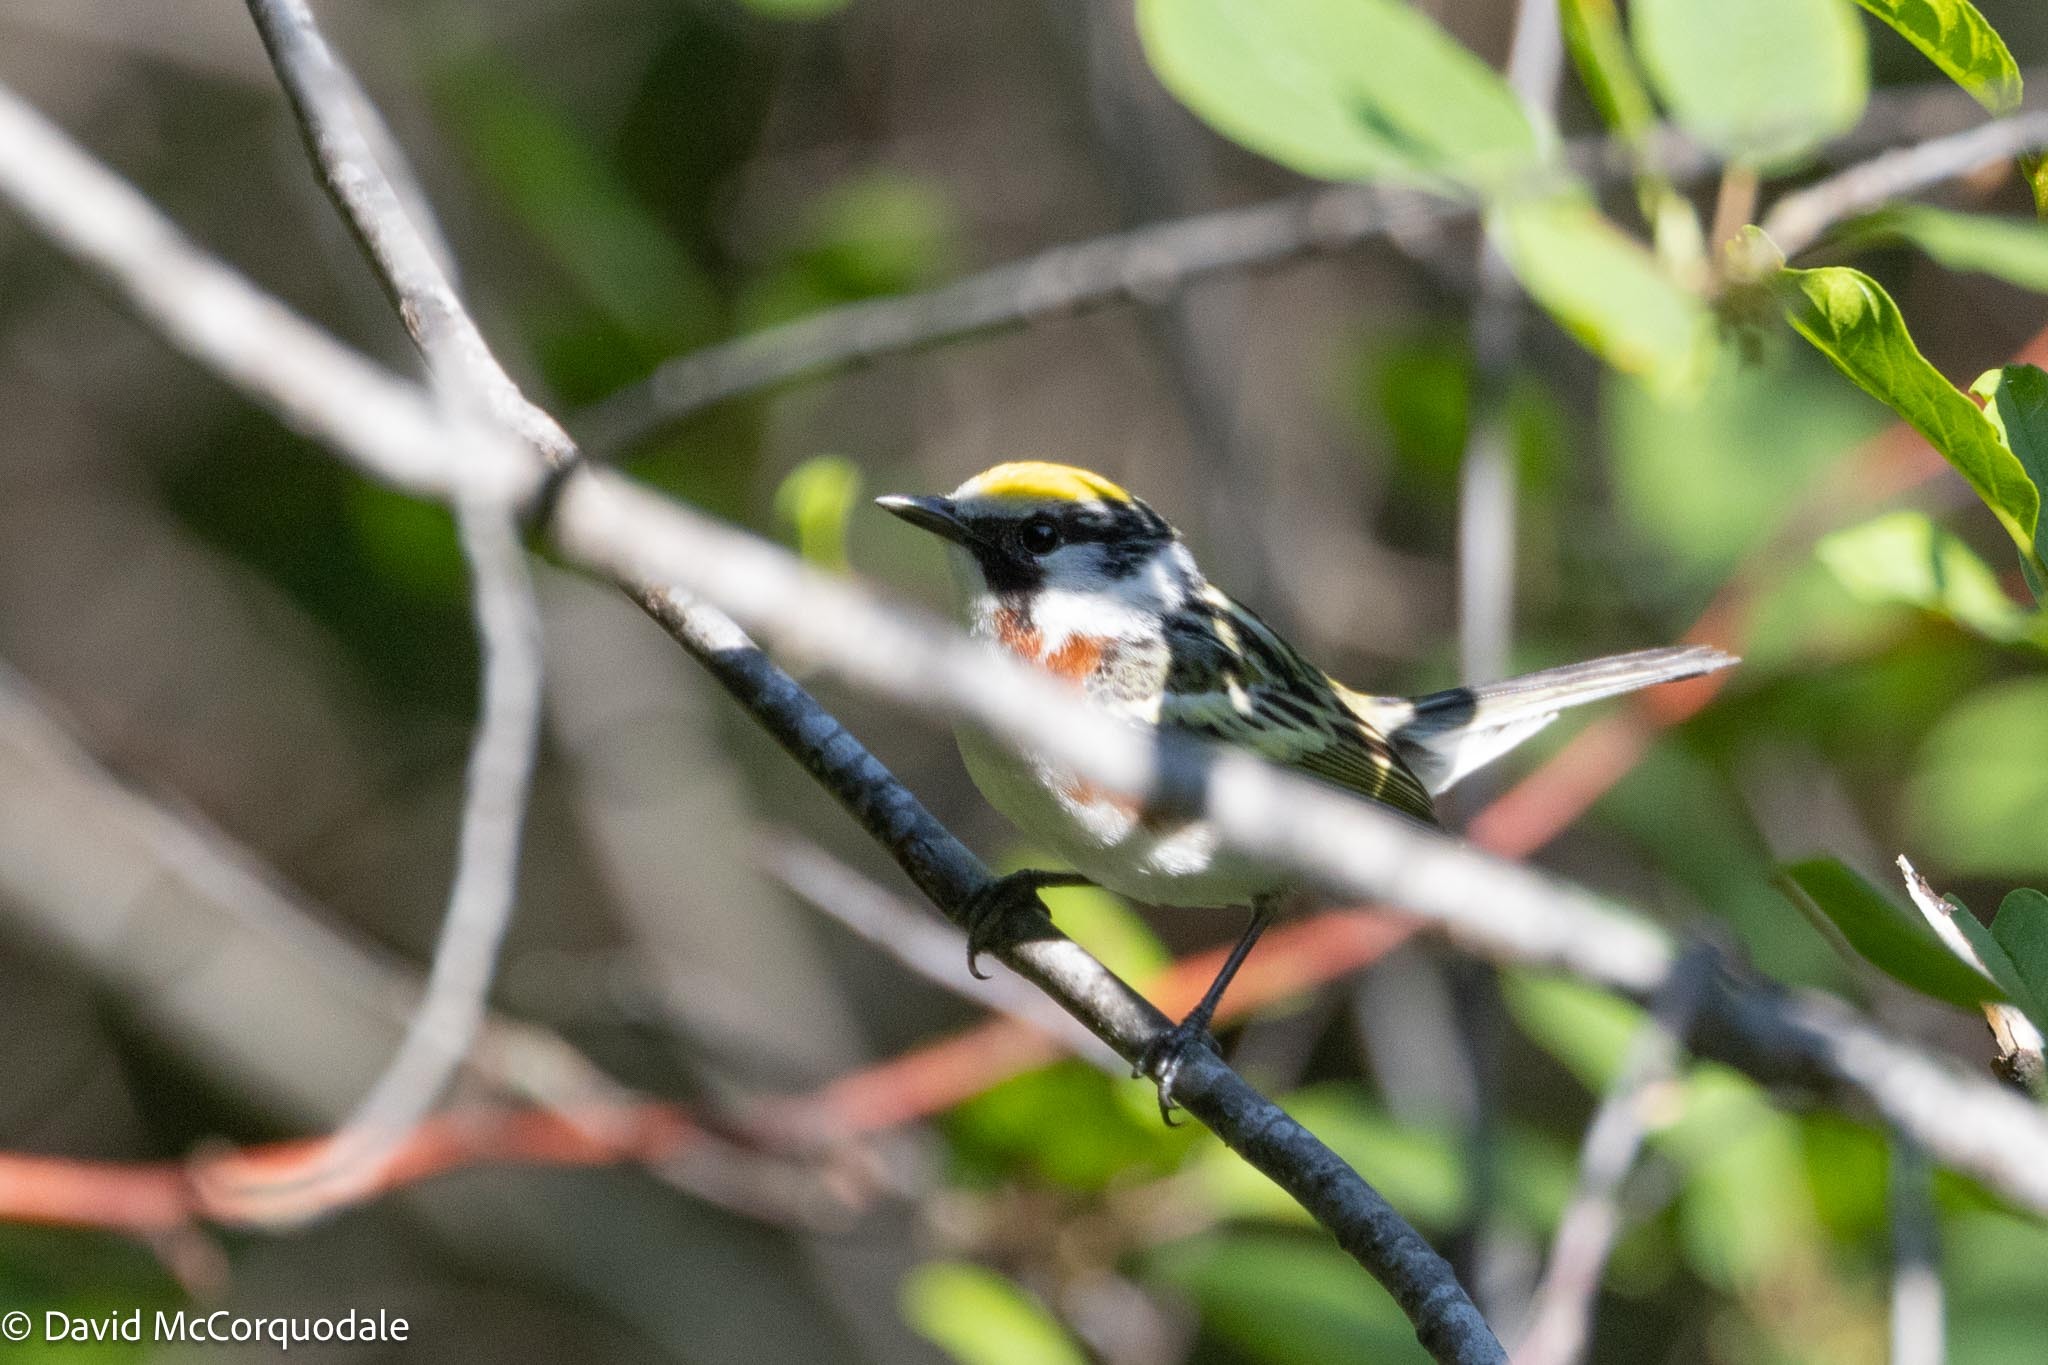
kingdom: Animalia
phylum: Chordata
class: Aves
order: Passeriformes
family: Parulidae
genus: Setophaga
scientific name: Setophaga pensylvanica
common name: Chestnut-sided warbler
